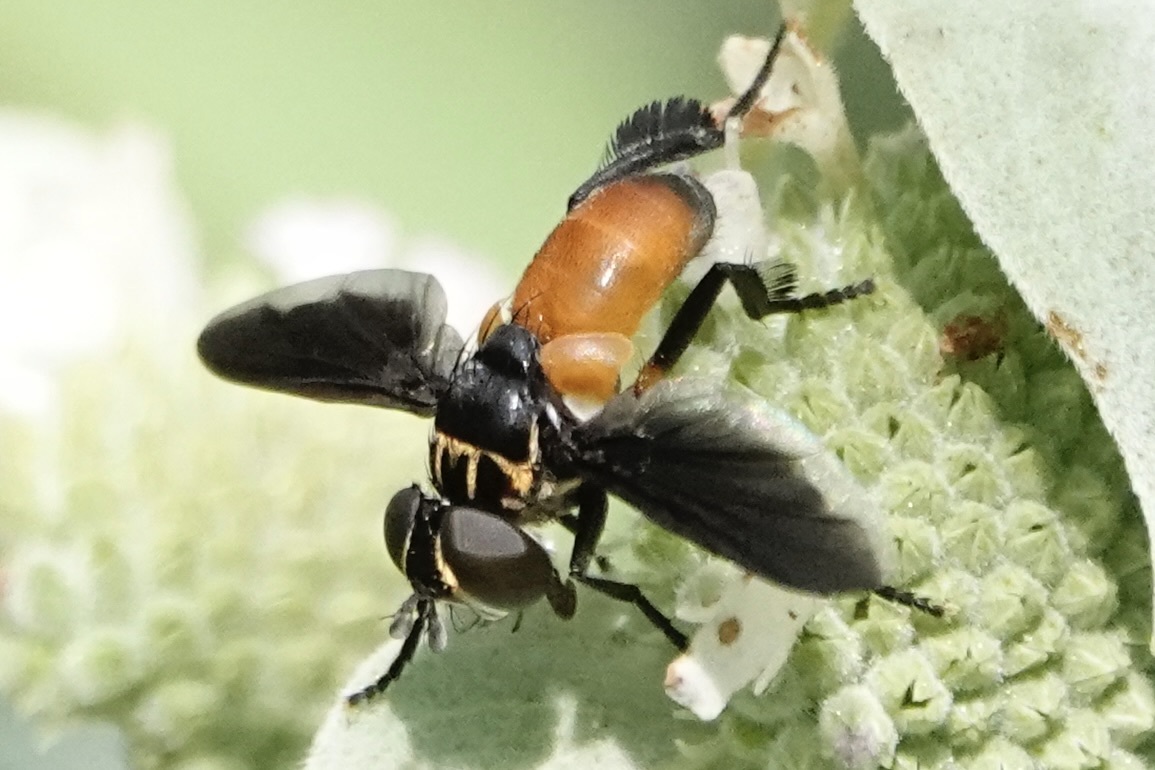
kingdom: Animalia
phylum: Arthropoda
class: Insecta
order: Diptera
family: Tachinidae
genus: Trichopoda
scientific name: Trichopoda pennipes
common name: Tachinid fly
